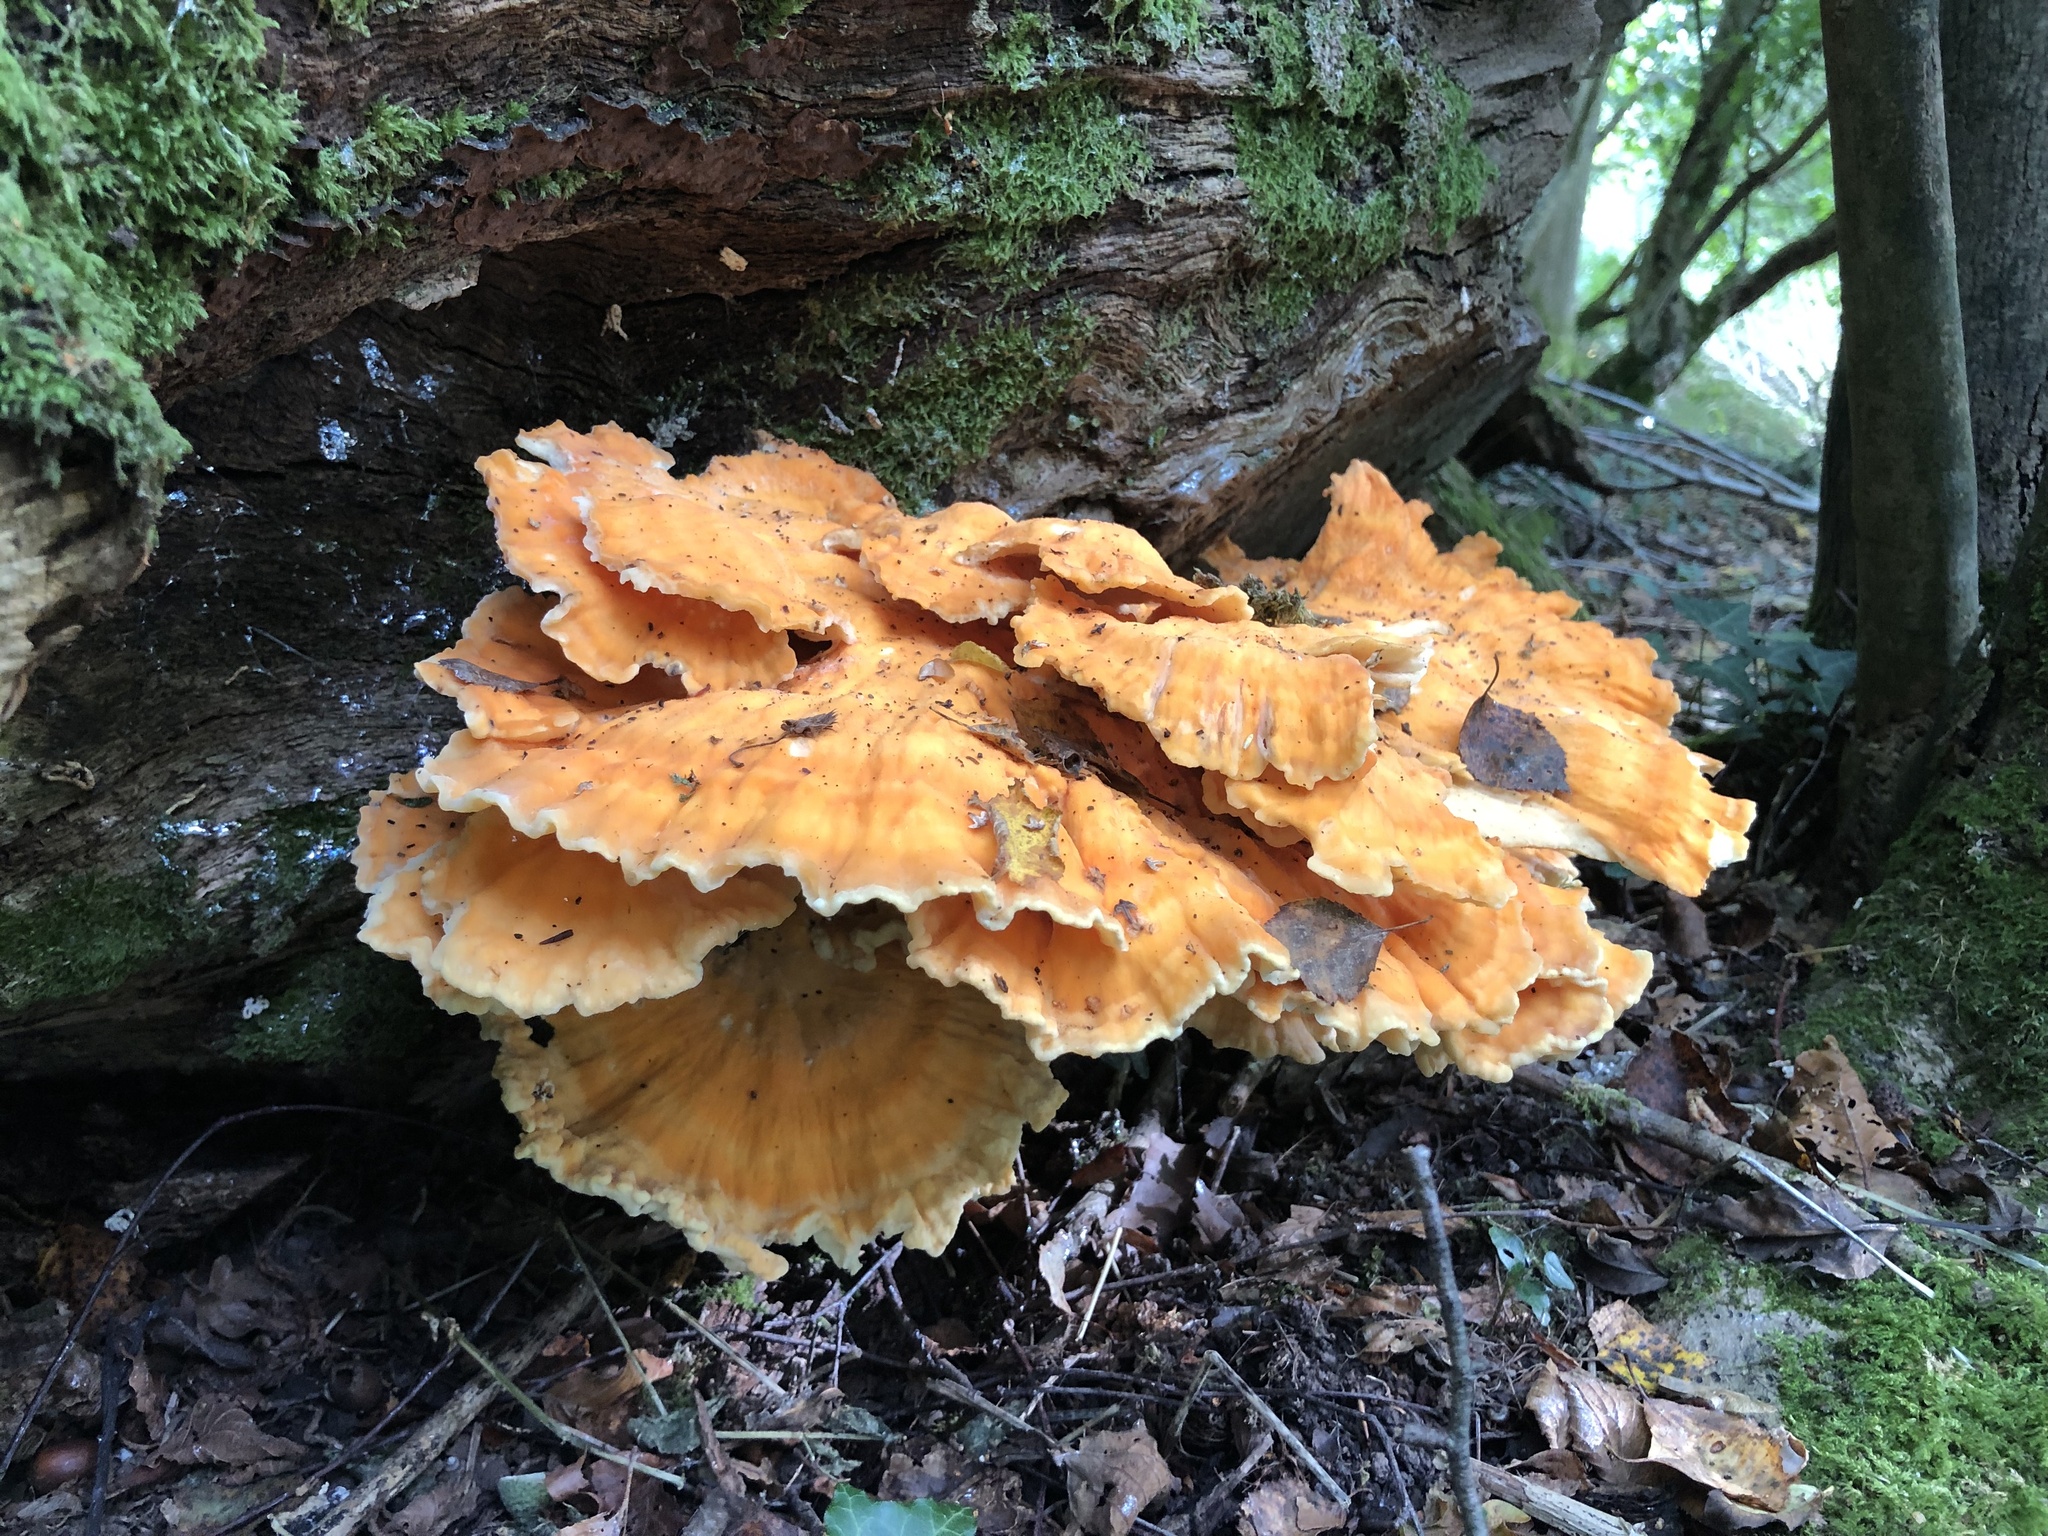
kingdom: Fungi
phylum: Basidiomycota
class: Agaricomycetes
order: Polyporales
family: Laetiporaceae
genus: Laetiporus
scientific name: Laetiporus sulphureus
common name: Chicken of the woods
